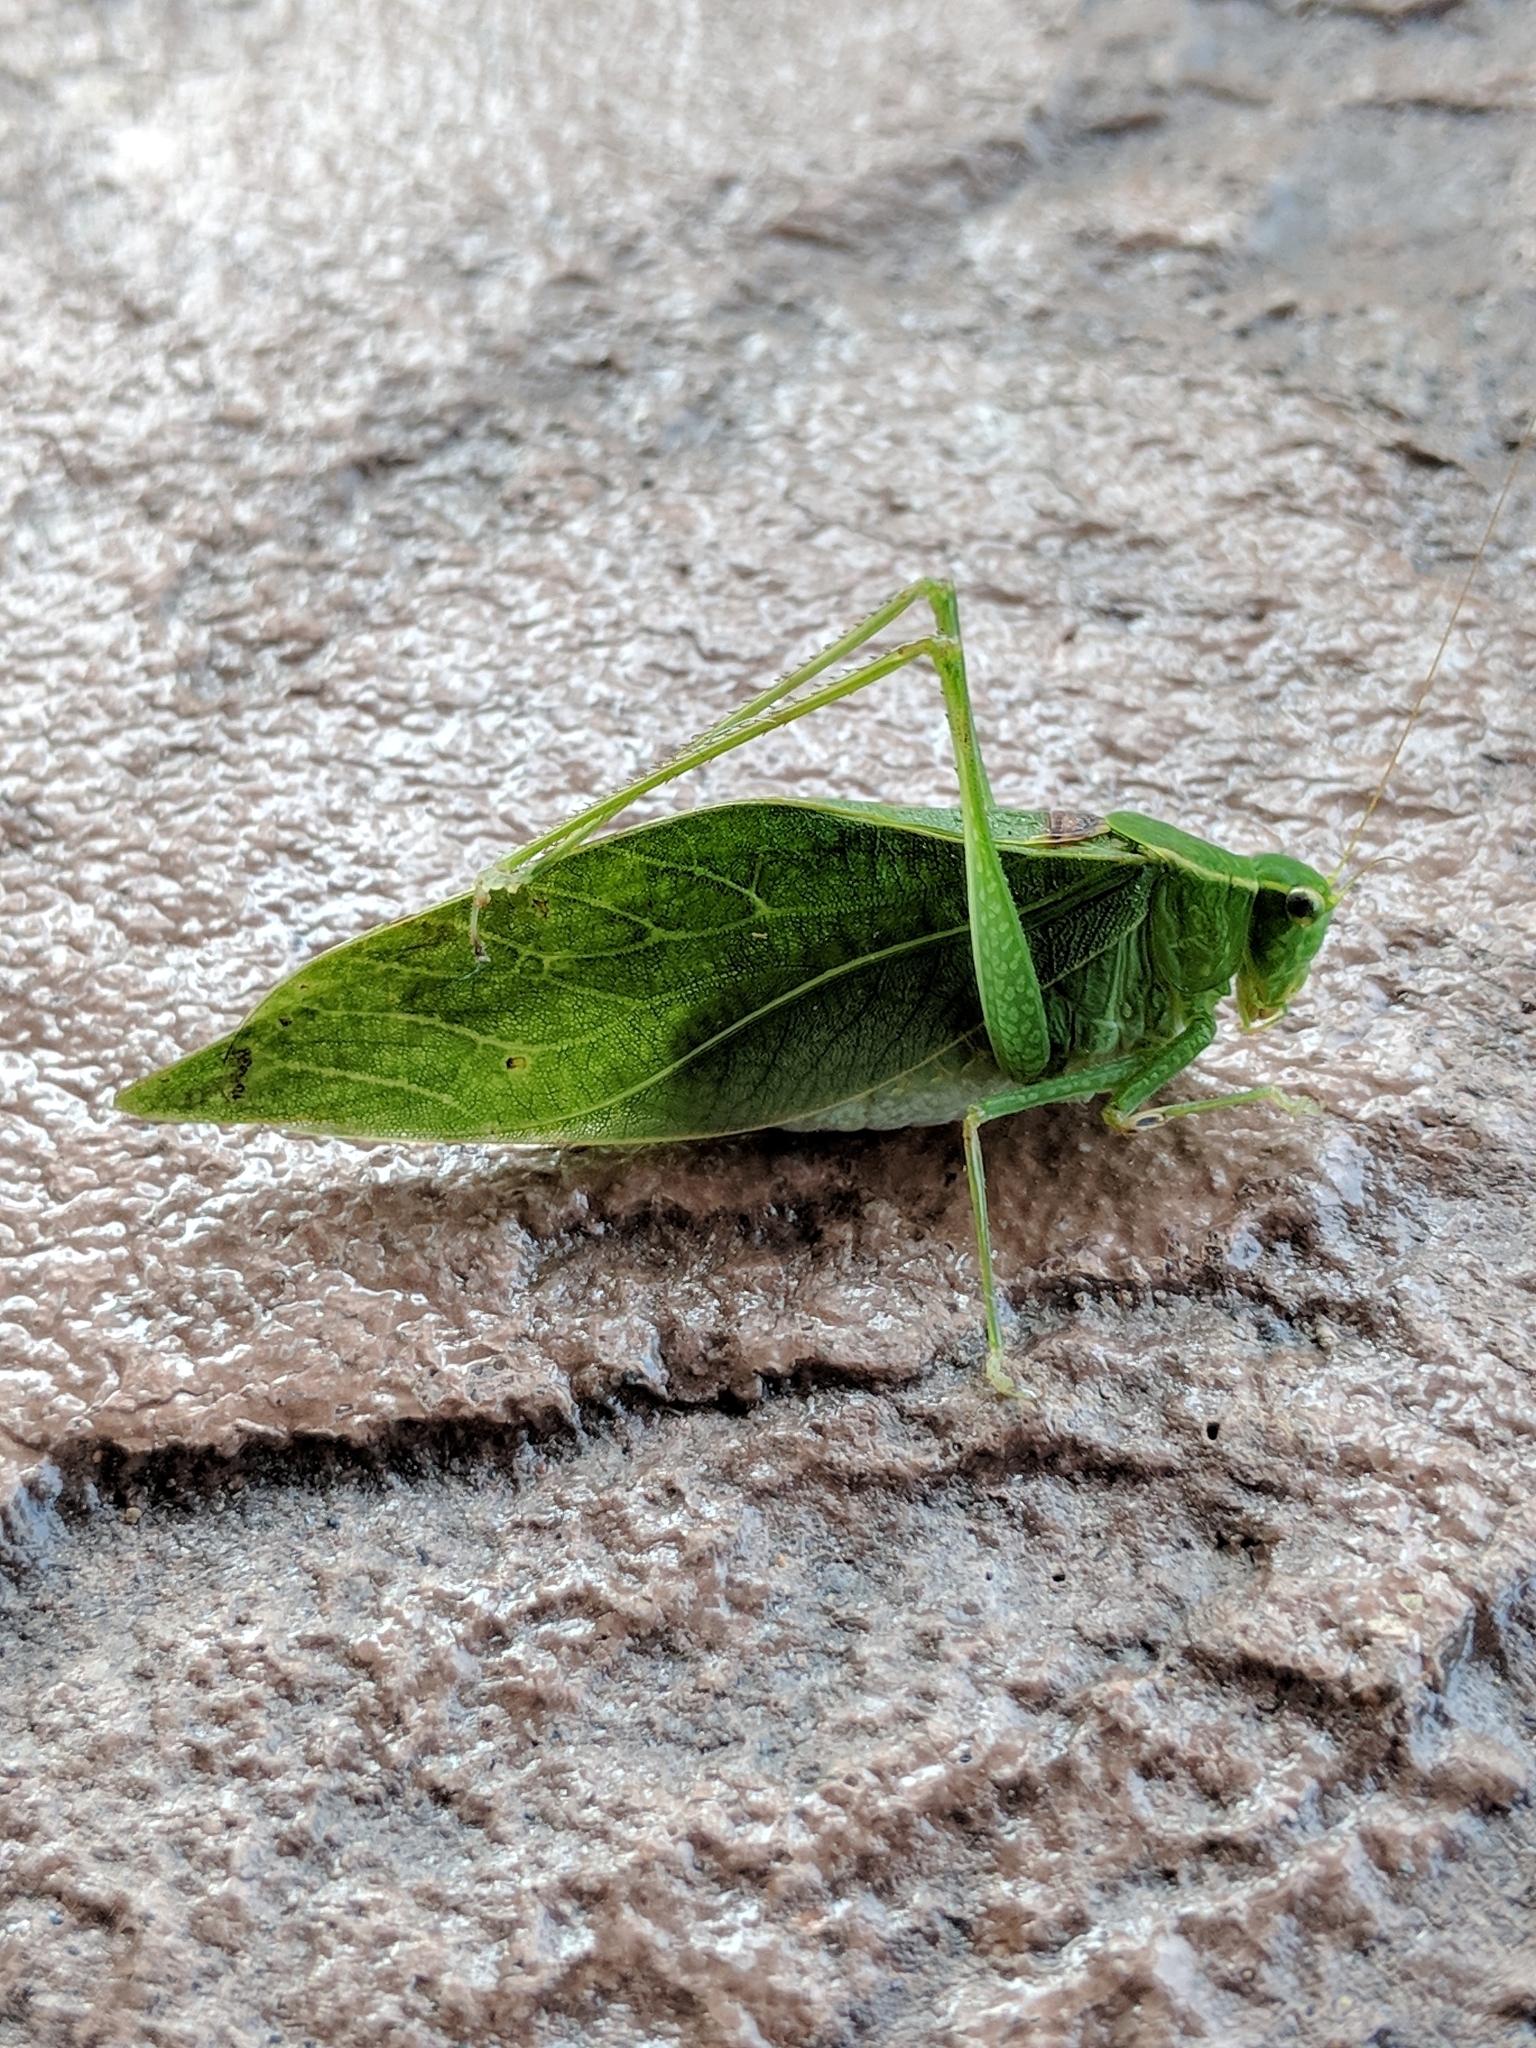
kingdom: Animalia
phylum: Arthropoda
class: Insecta
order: Orthoptera
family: Tettigoniidae
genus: Microcentrum
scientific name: Microcentrum retinerve
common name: Angular-winged katydid
